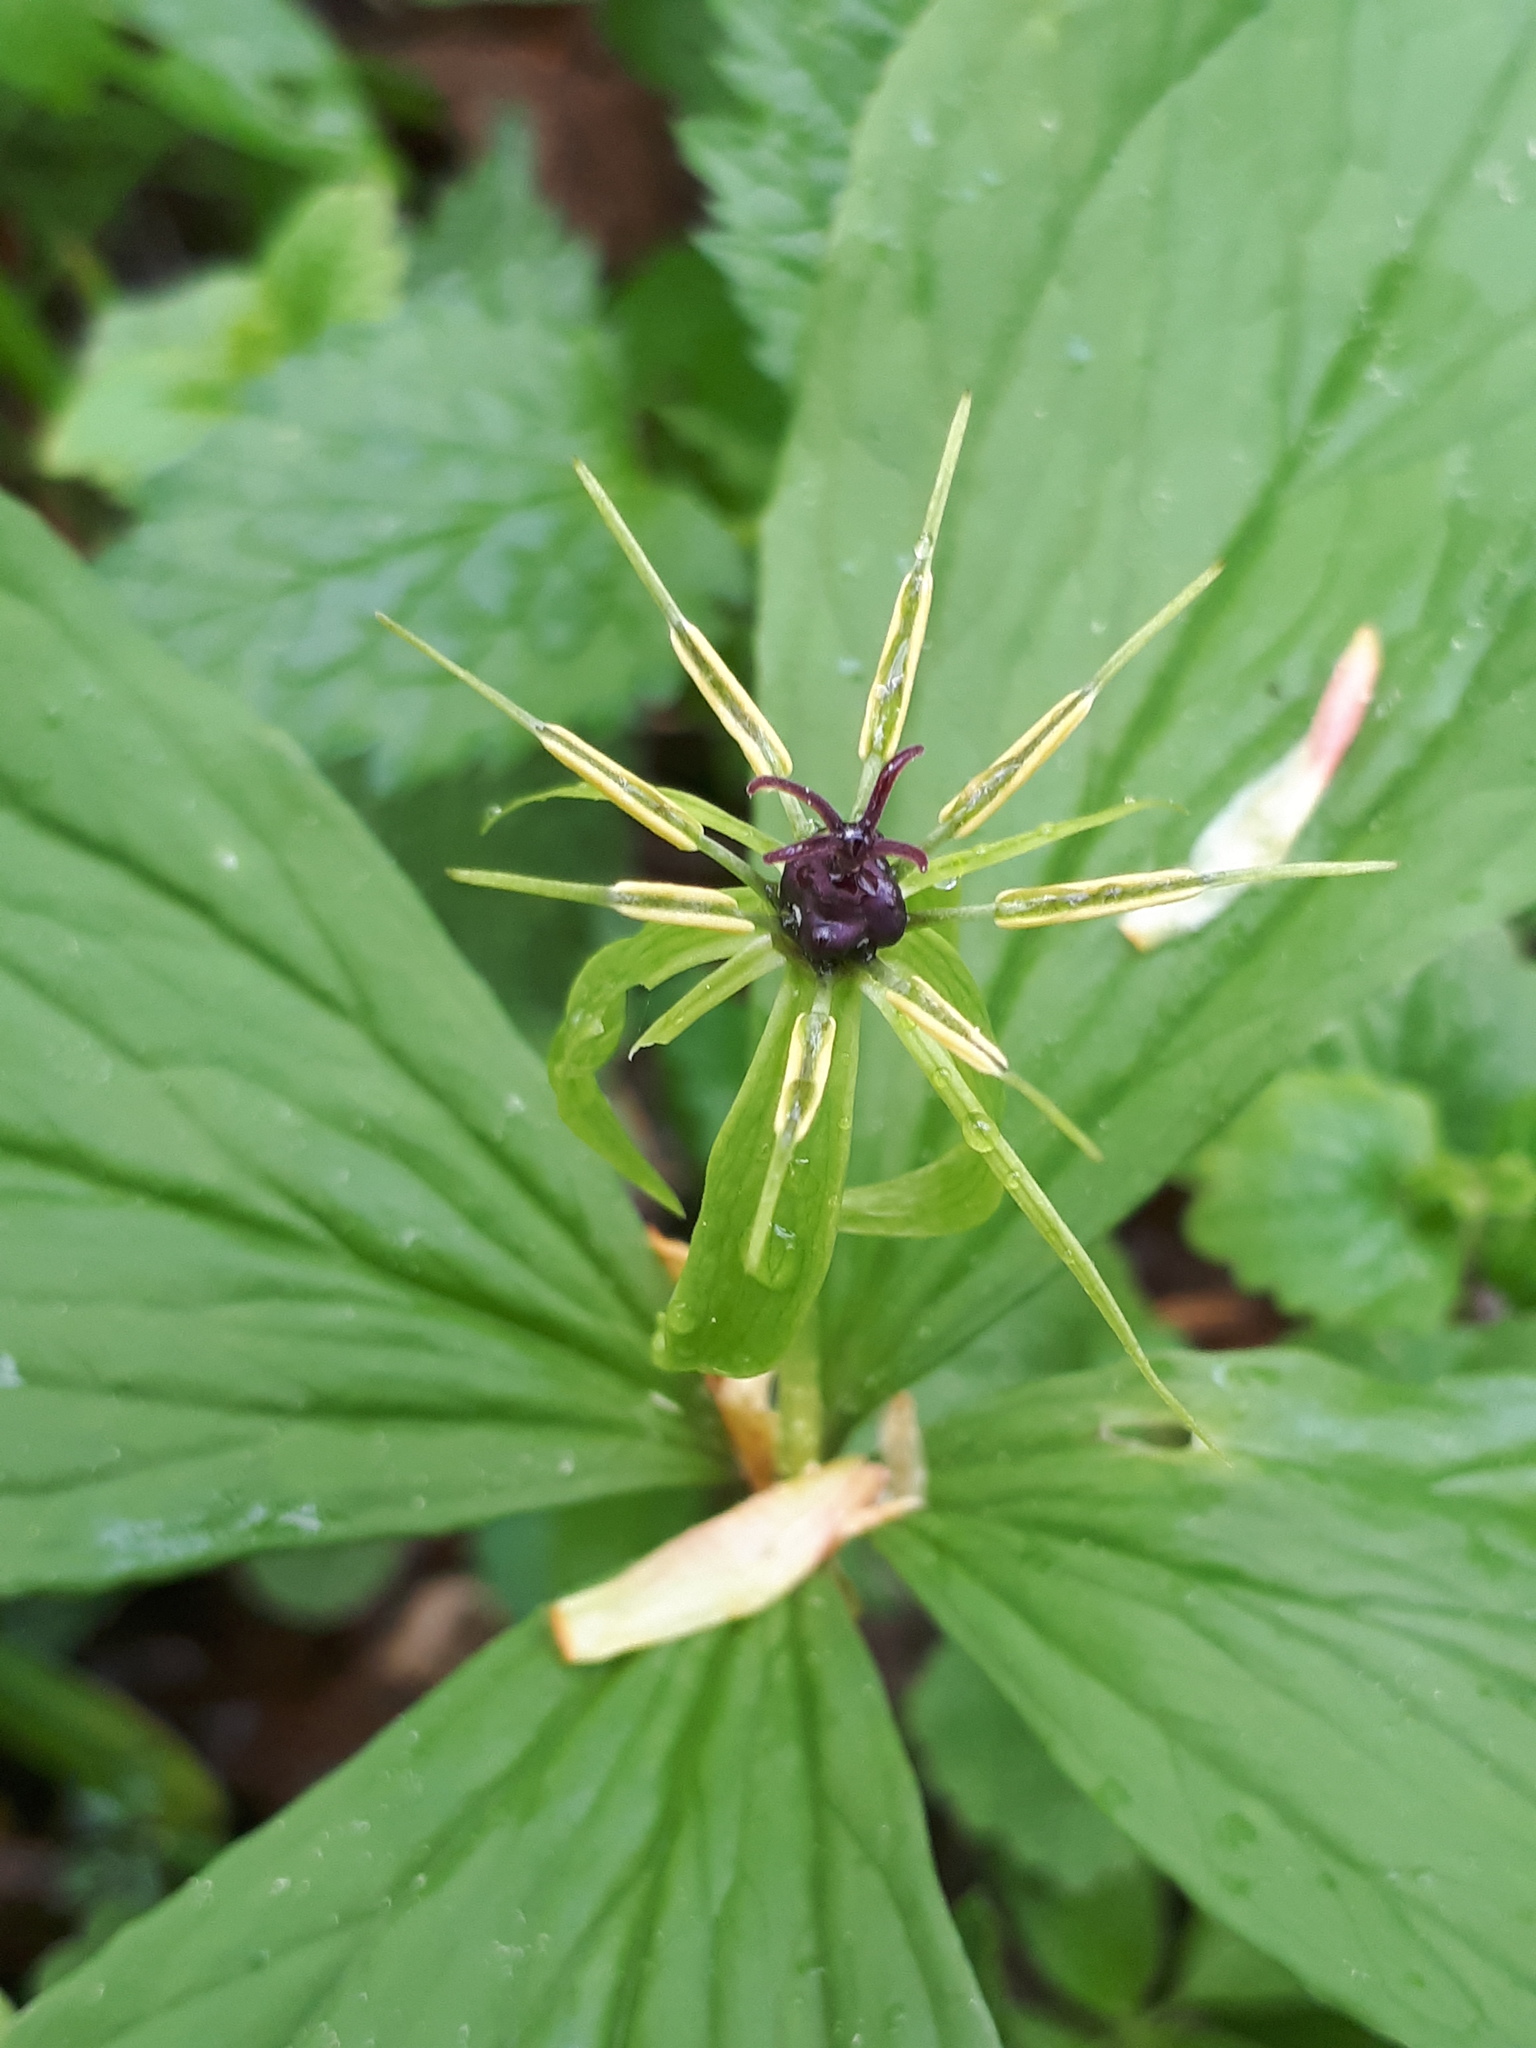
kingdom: Plantae
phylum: Tracheophyta
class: Liliopsida
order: Liliales
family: Melanthiaceae
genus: Paris
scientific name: Paris quadrifolia
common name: Herb-paris
